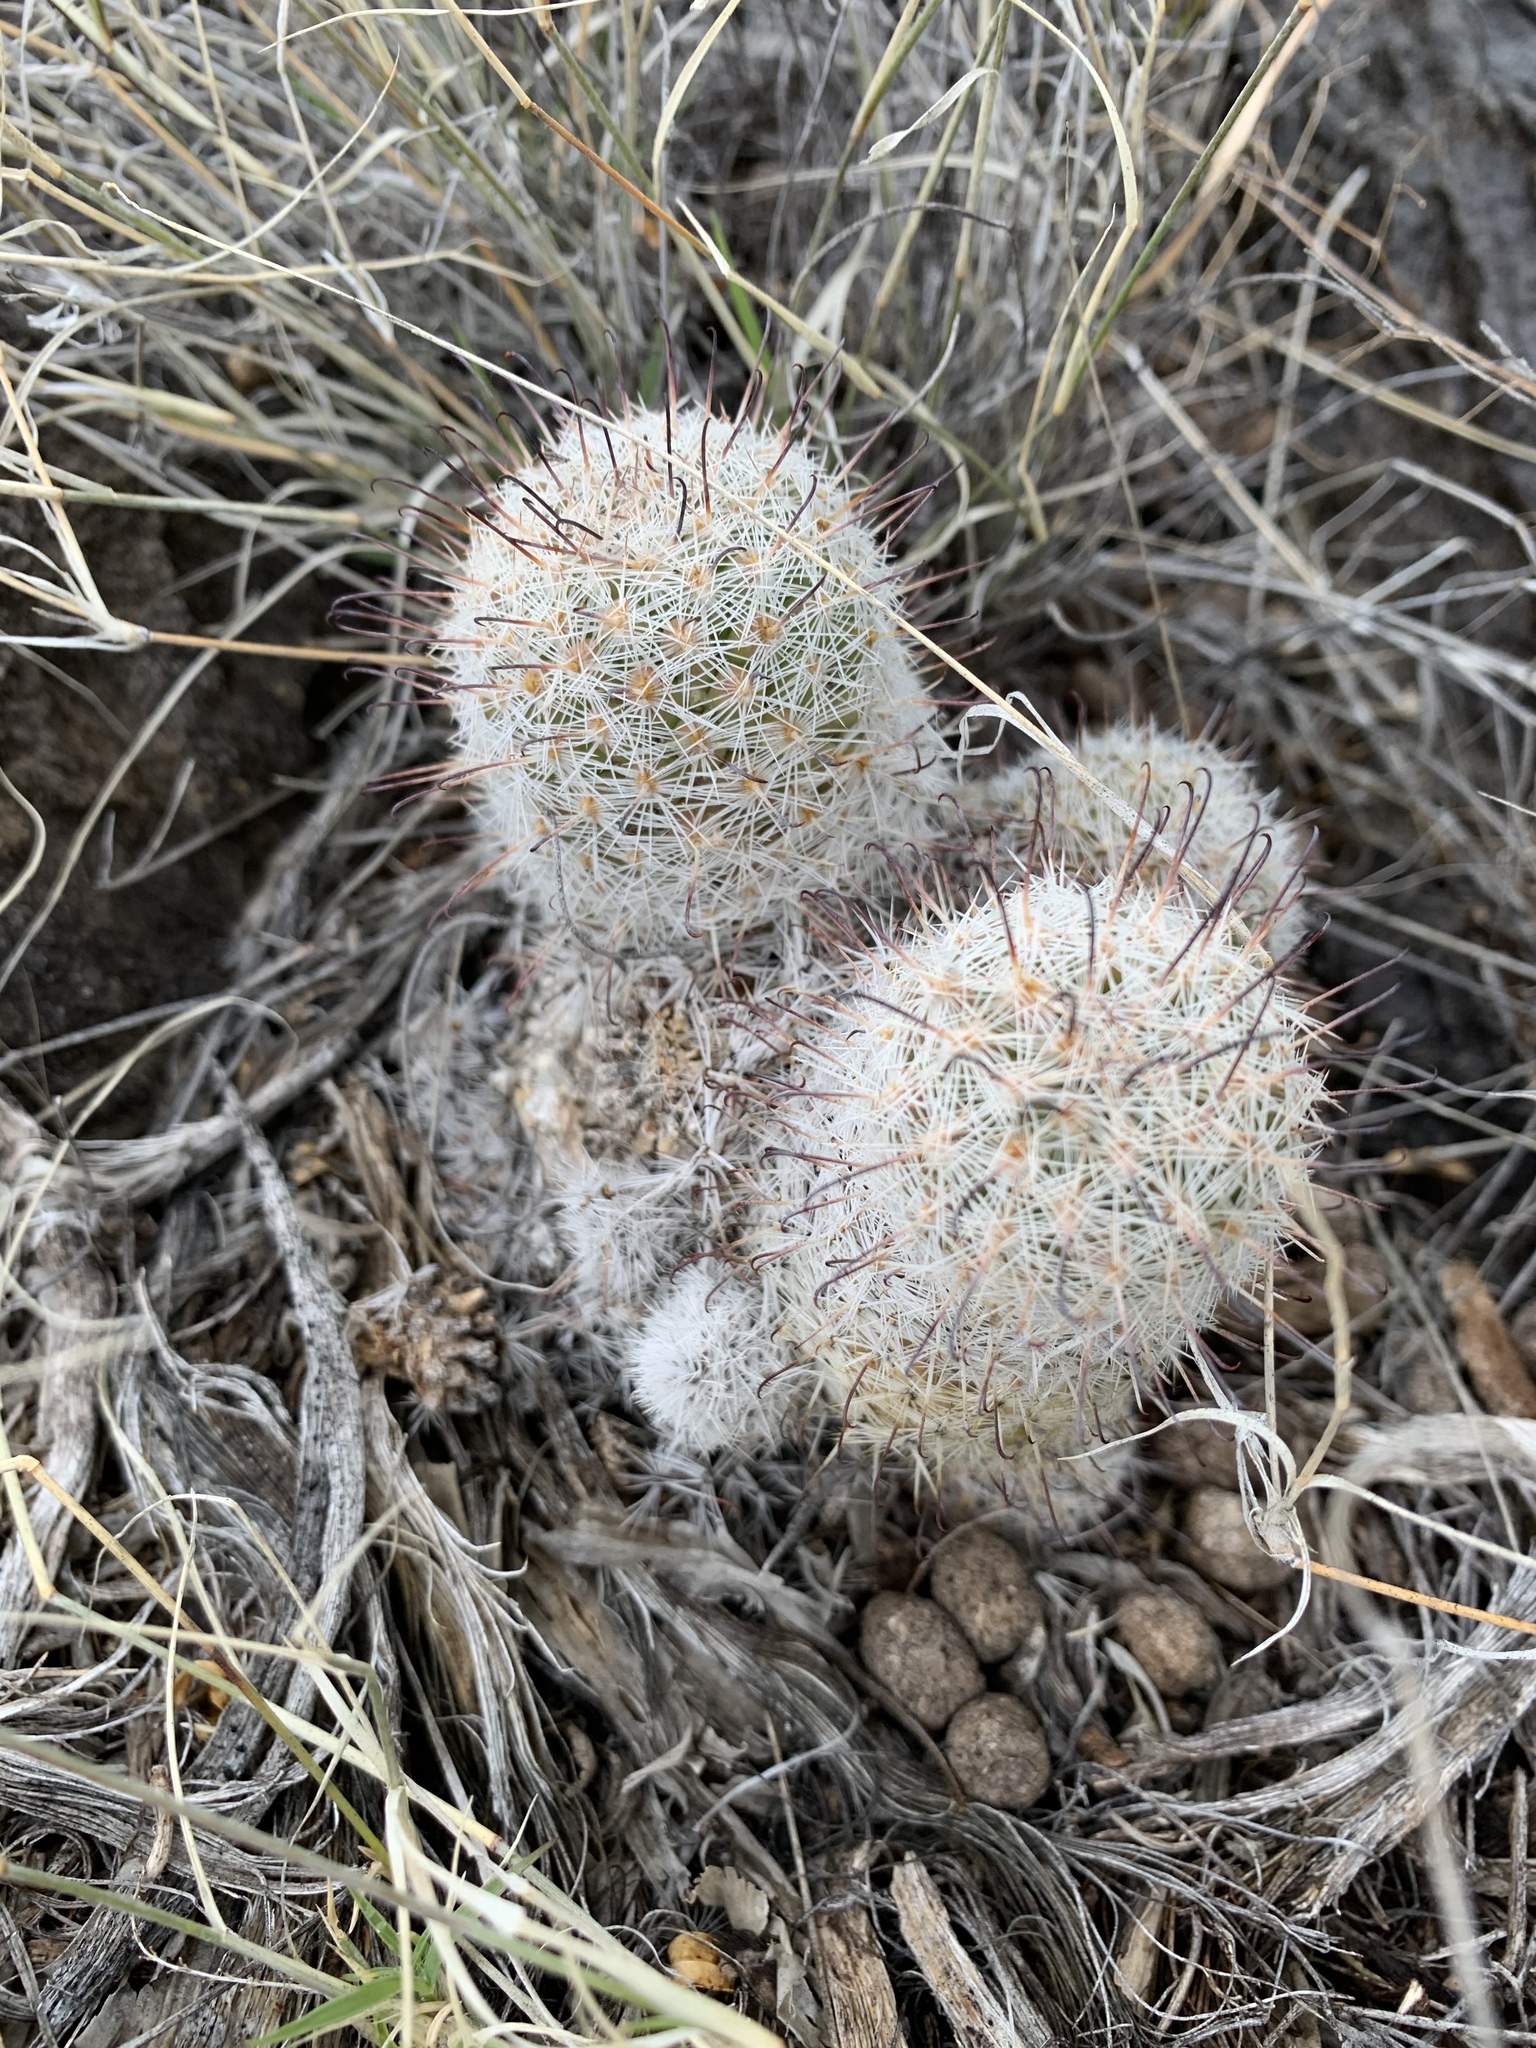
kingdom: Plantae
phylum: Tracheophyta
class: Magnoliopsida
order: Caryophyllales
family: Cactaceae
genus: Cochemiea
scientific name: Cochemiea grahamii
